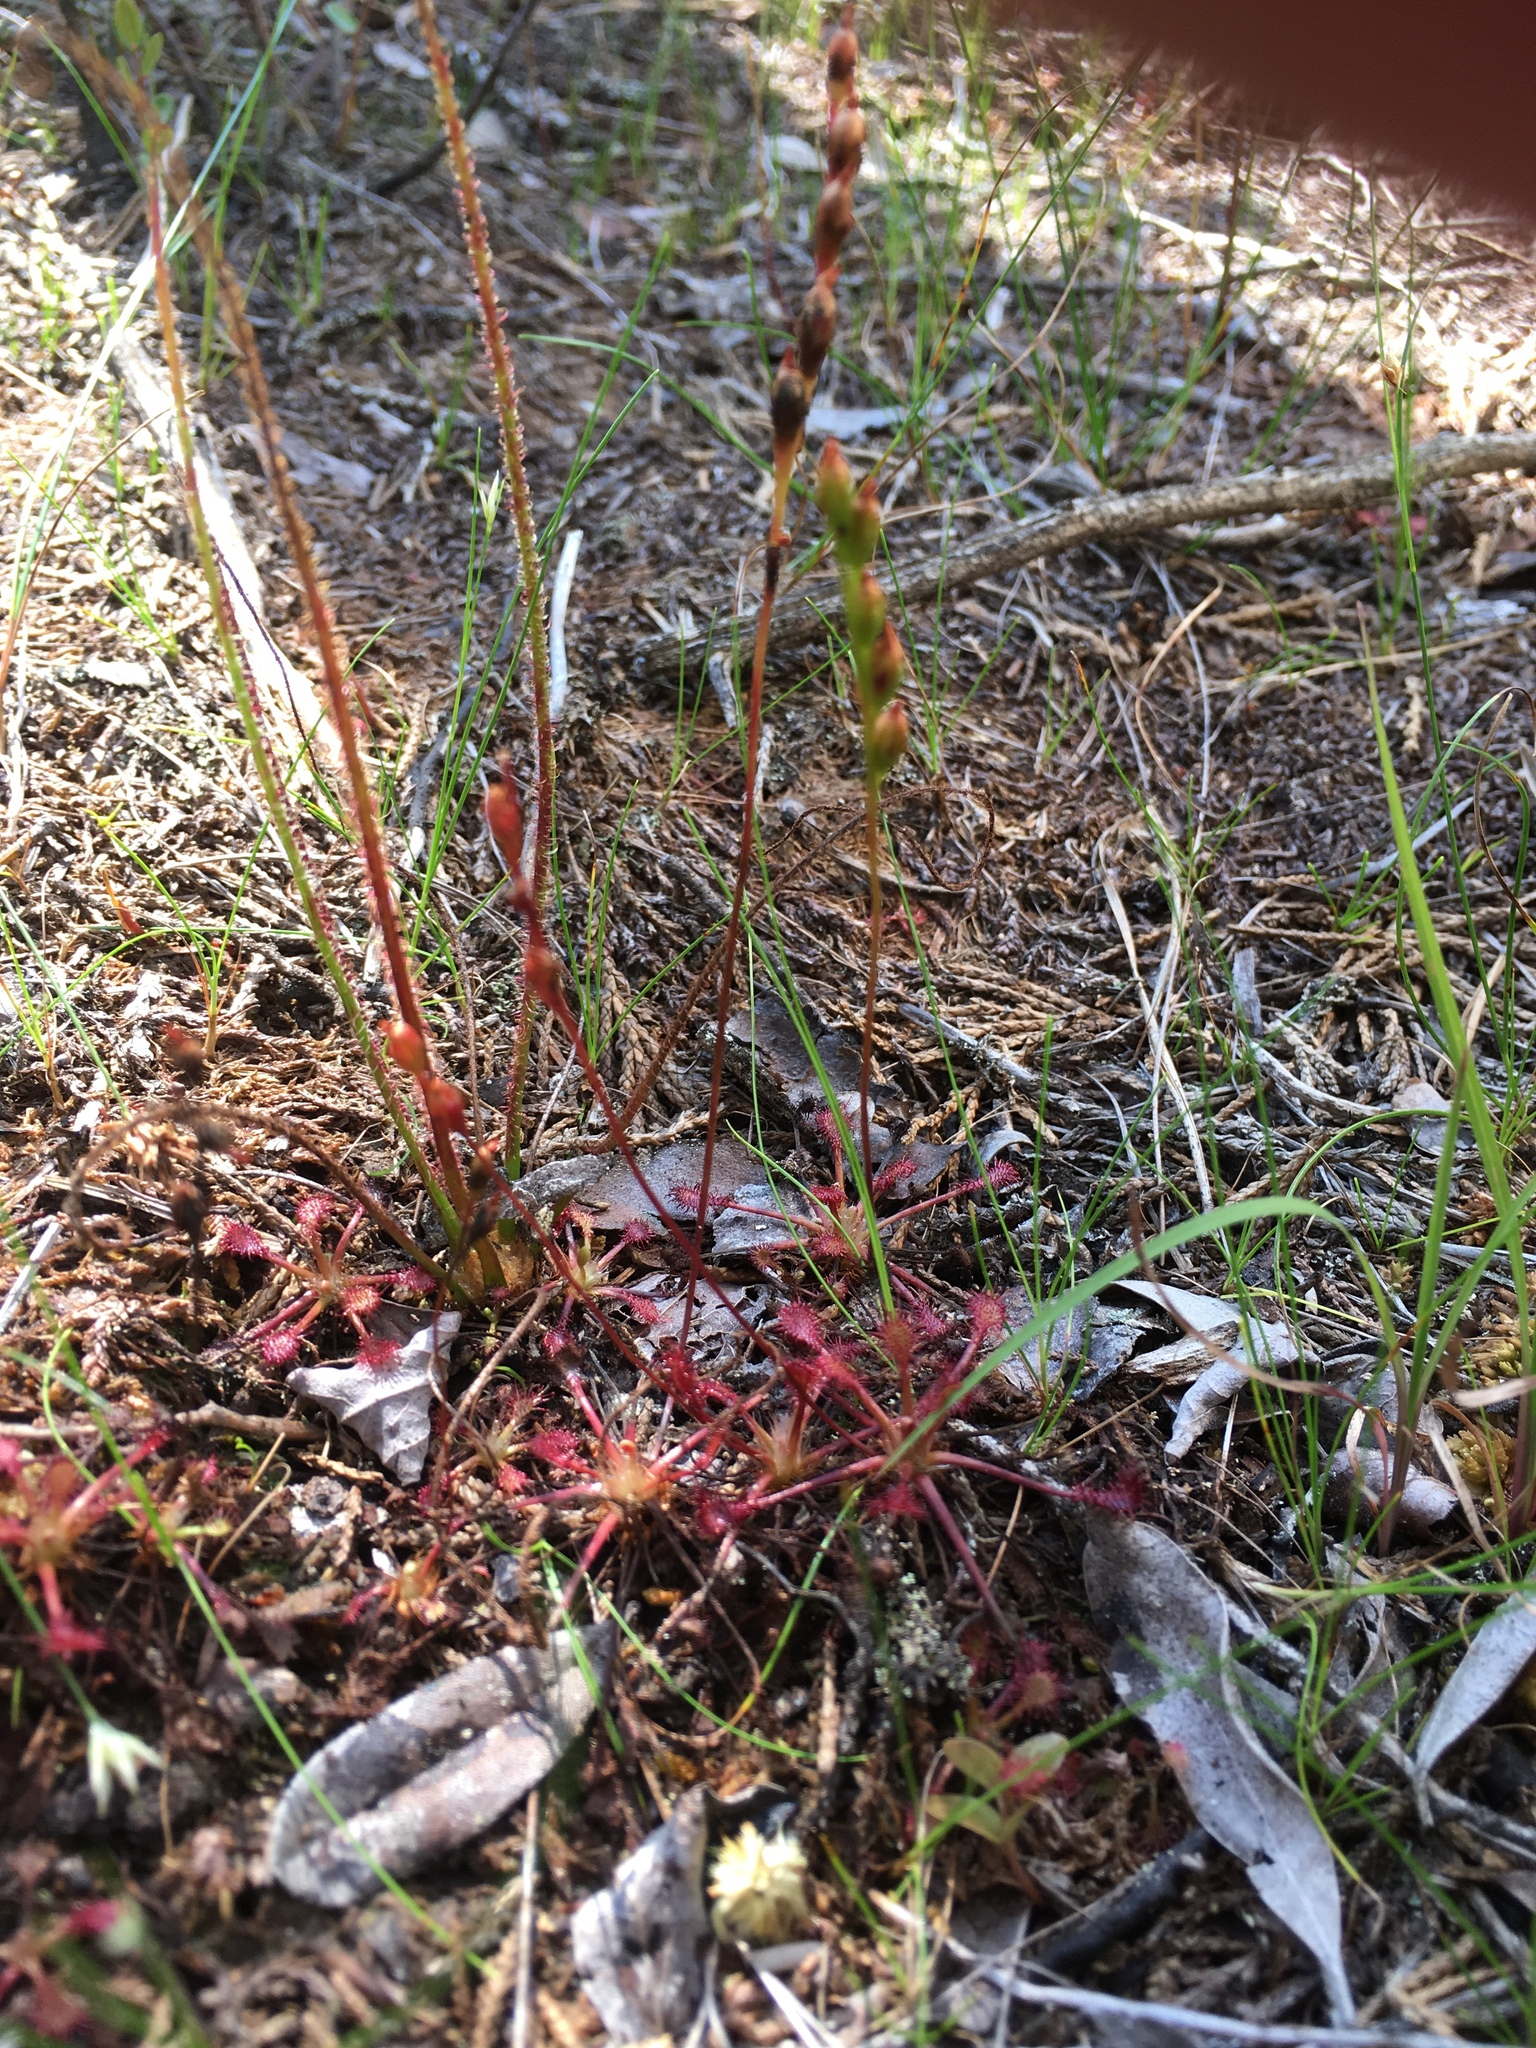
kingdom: Plantae
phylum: Tracheophyta
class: Magnoliopsida
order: Caryophyllales
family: Droseraceae
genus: Drosera
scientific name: Drosera intermedia
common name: Oblong-leaved sundew
